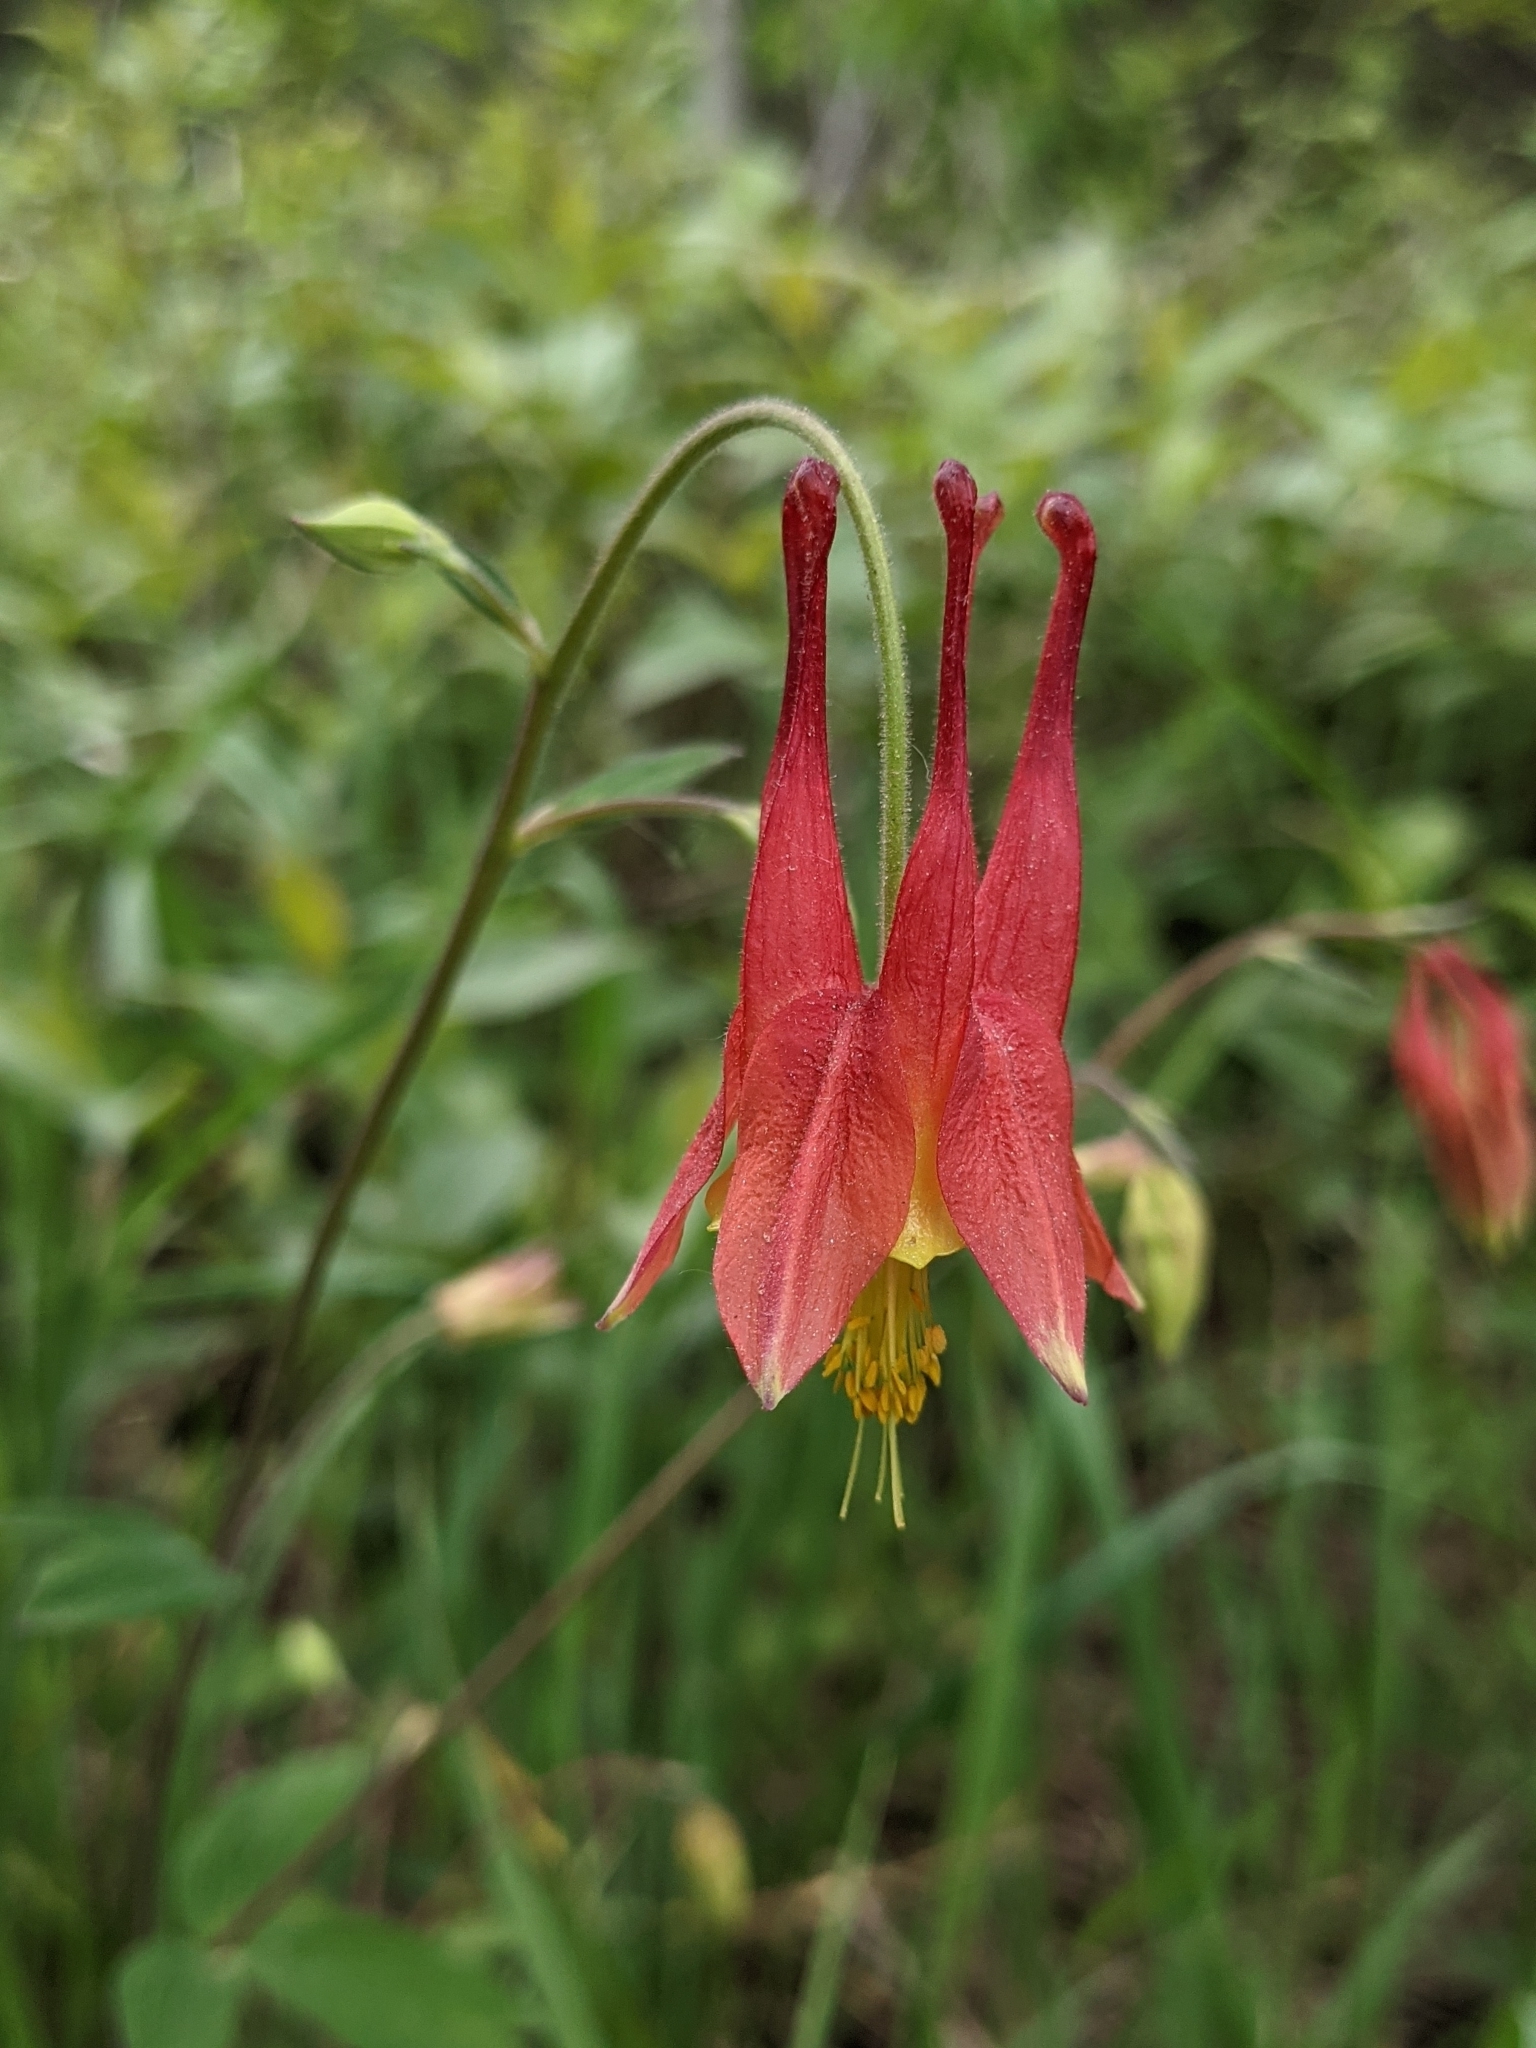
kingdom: Plantae
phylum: Tracheophyta
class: Magnoliopsida
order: Ranunculales
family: Ranunculaceae
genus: Aquilegia
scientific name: Aquilegia canadensis
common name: American columbine
